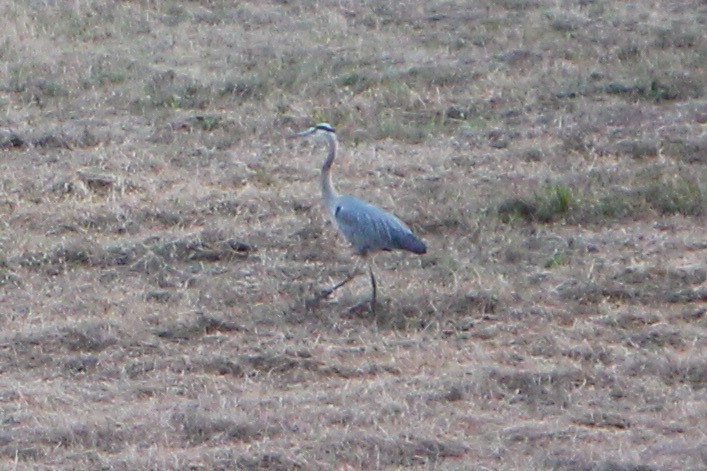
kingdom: Animalia
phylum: Chordata
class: Aves
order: Pelecaniformes
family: Ardeidae
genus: Ardea
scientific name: Ardea herodias
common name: Great blue heron
